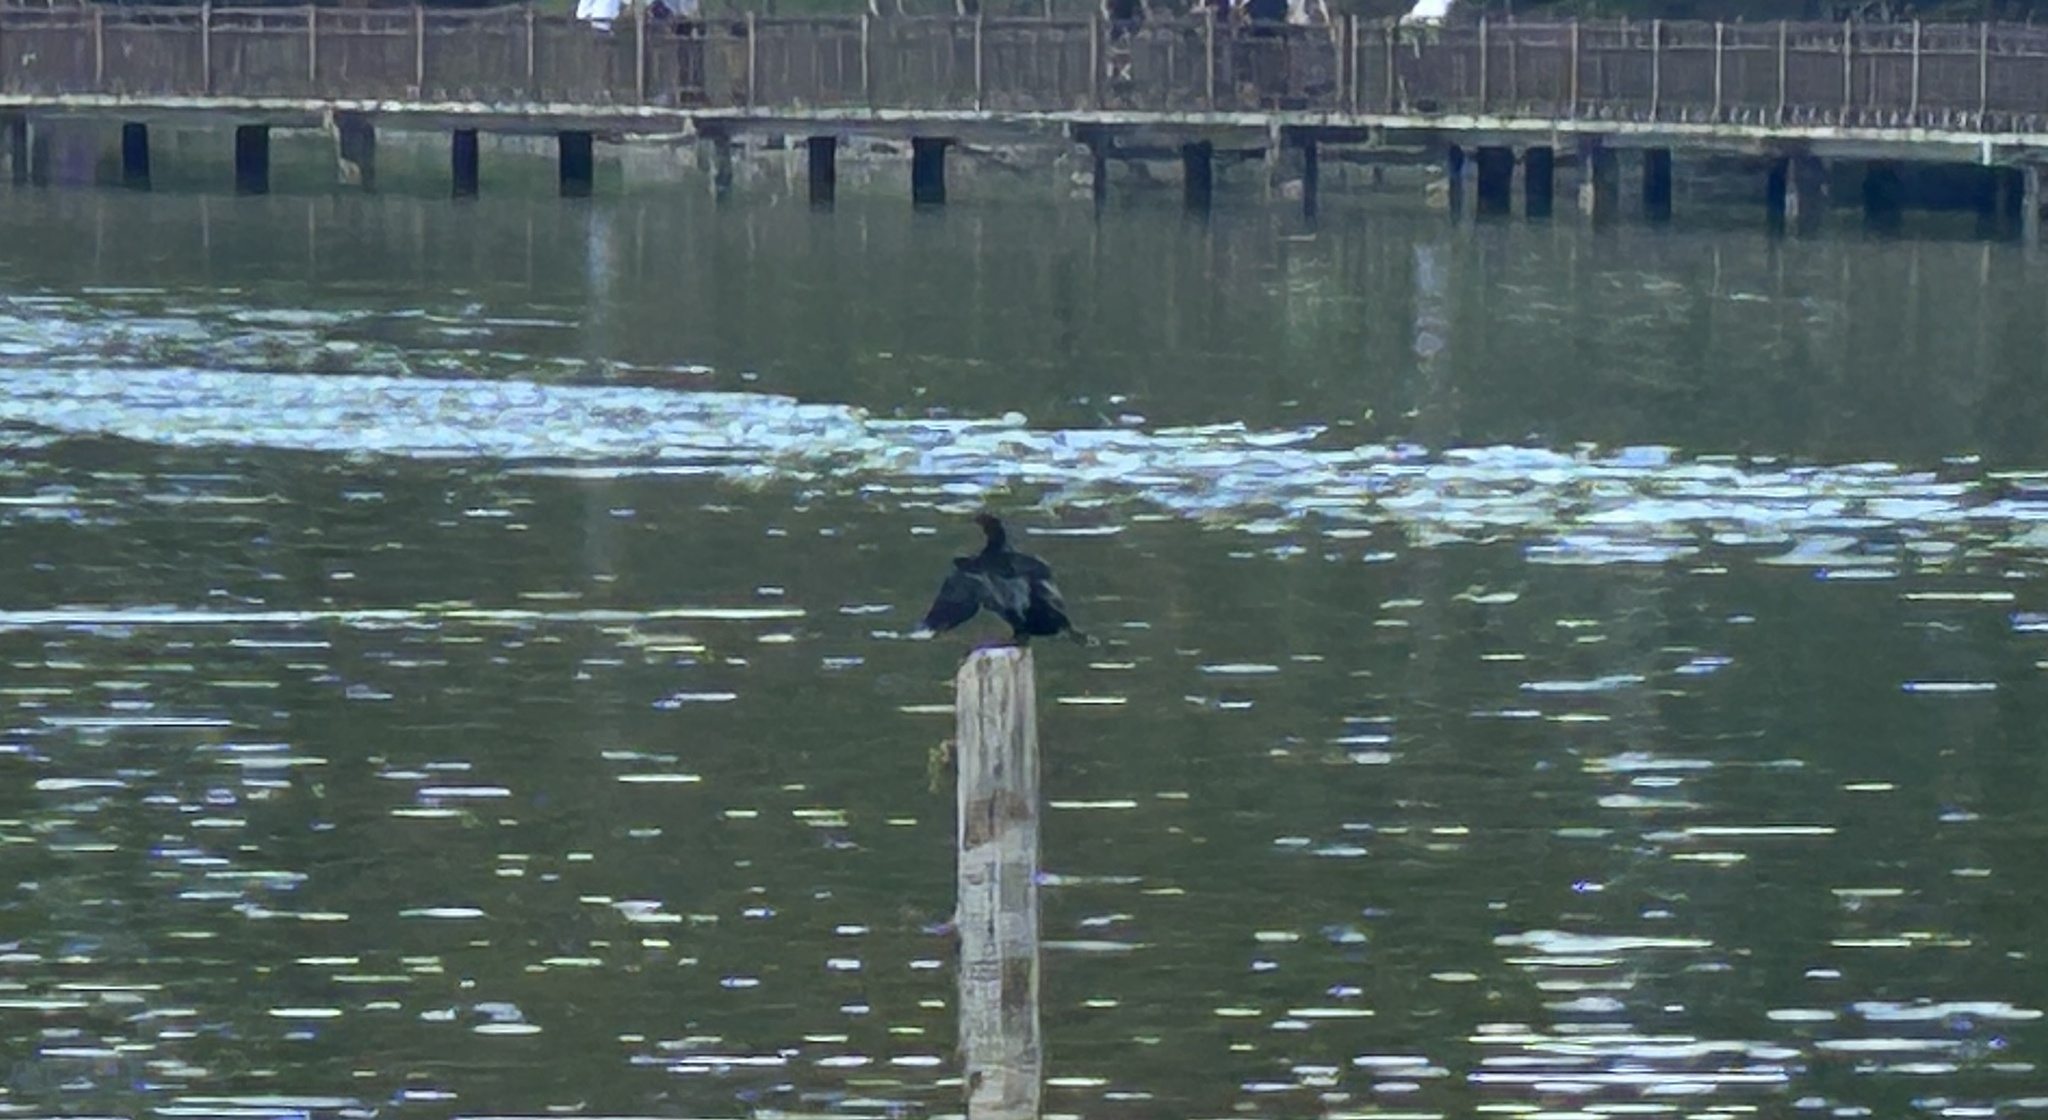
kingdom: Animalia
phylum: Chordata
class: Aves
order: Suliformes
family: Phalacrocoracidae
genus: Microcarbo
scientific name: Microcarbo niger
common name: Little cormorant
